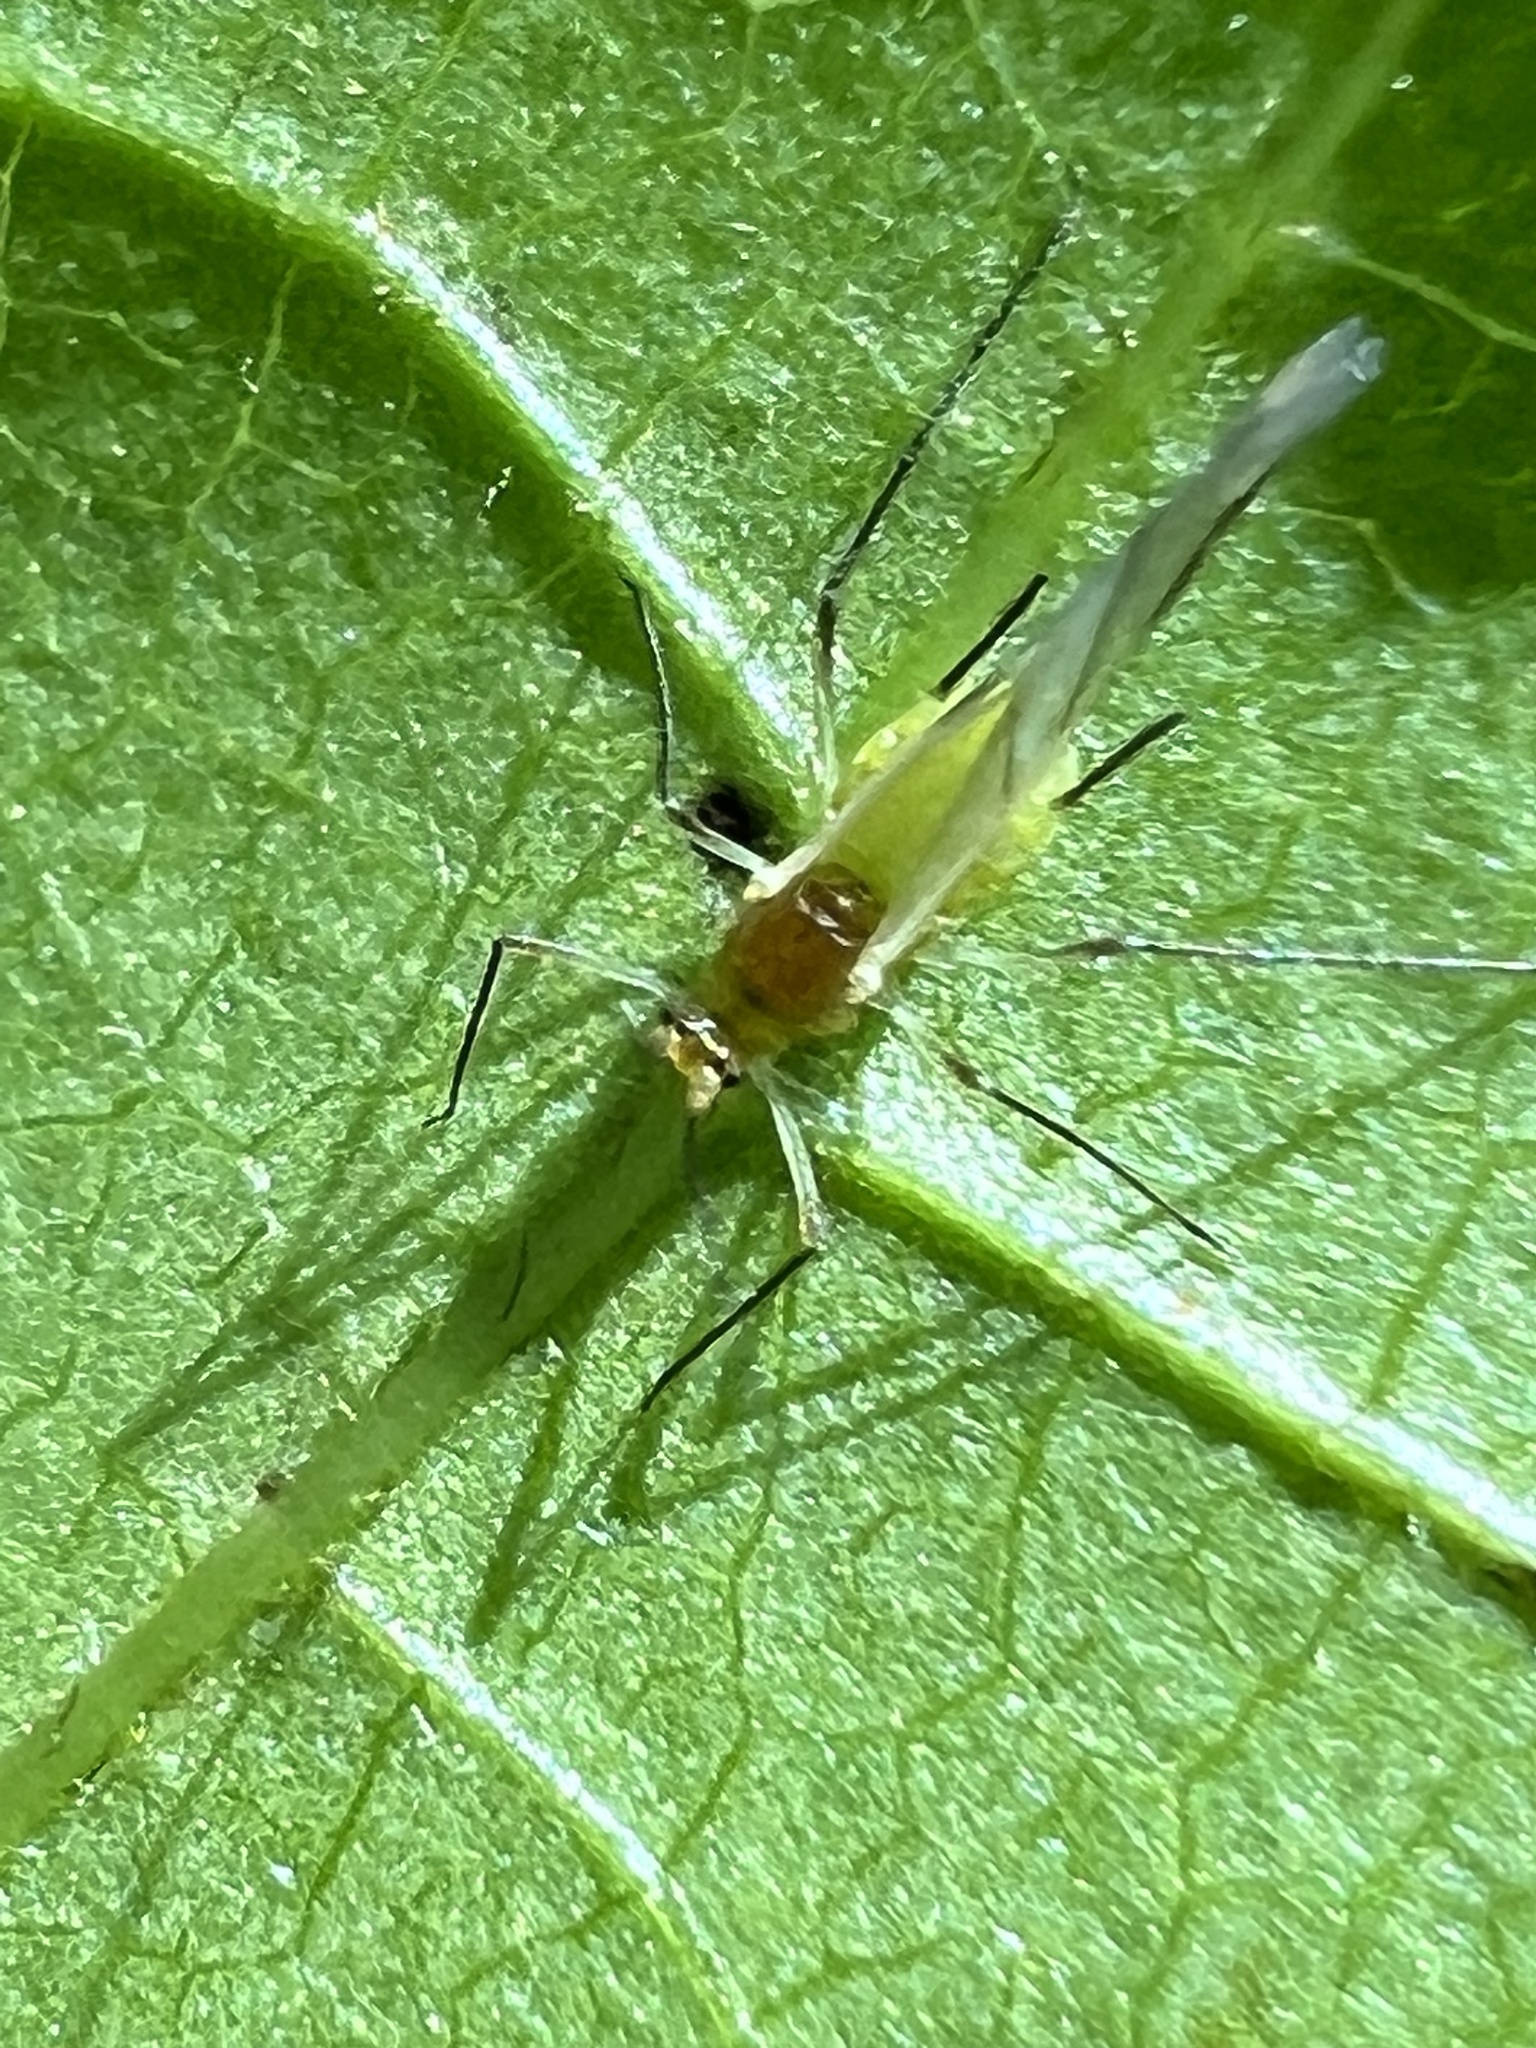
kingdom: Animalia
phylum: Arthropoda
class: Insecta
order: Hemiptera
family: Aphididae
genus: Illinoia
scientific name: Illinoia liriodendri
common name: Tuliptree aphid
